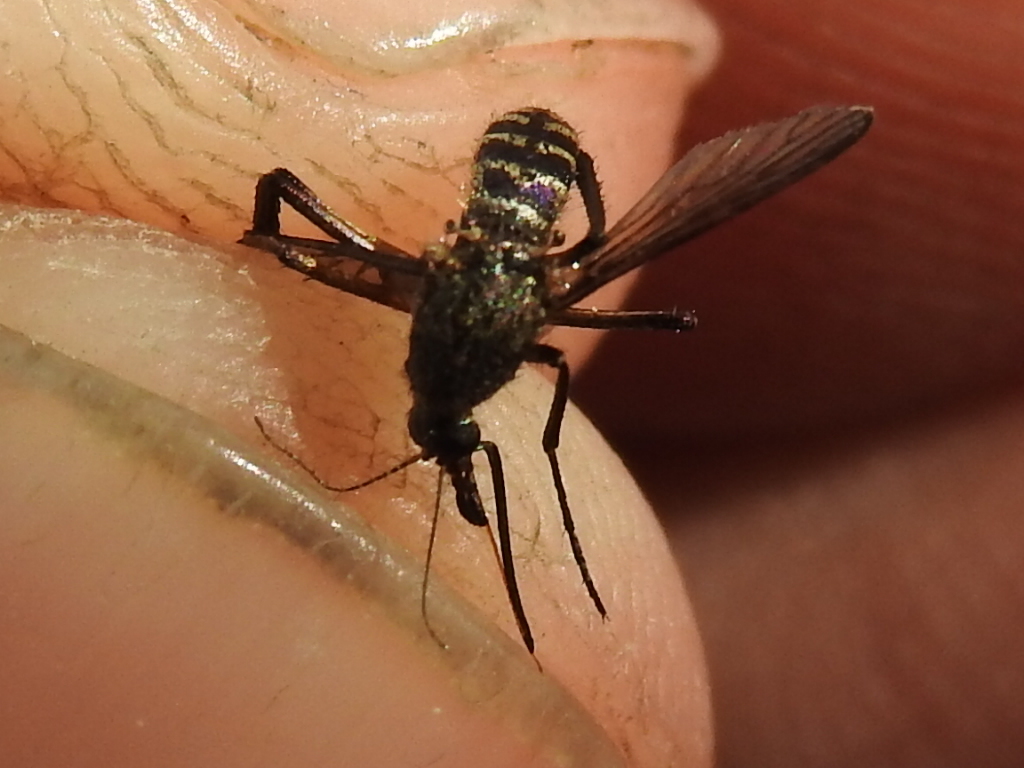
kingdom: Animalia
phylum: Arthropoda
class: Insecta
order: Diptera
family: Culicidae
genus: Psorophora
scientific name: Psorophora cyanescens
